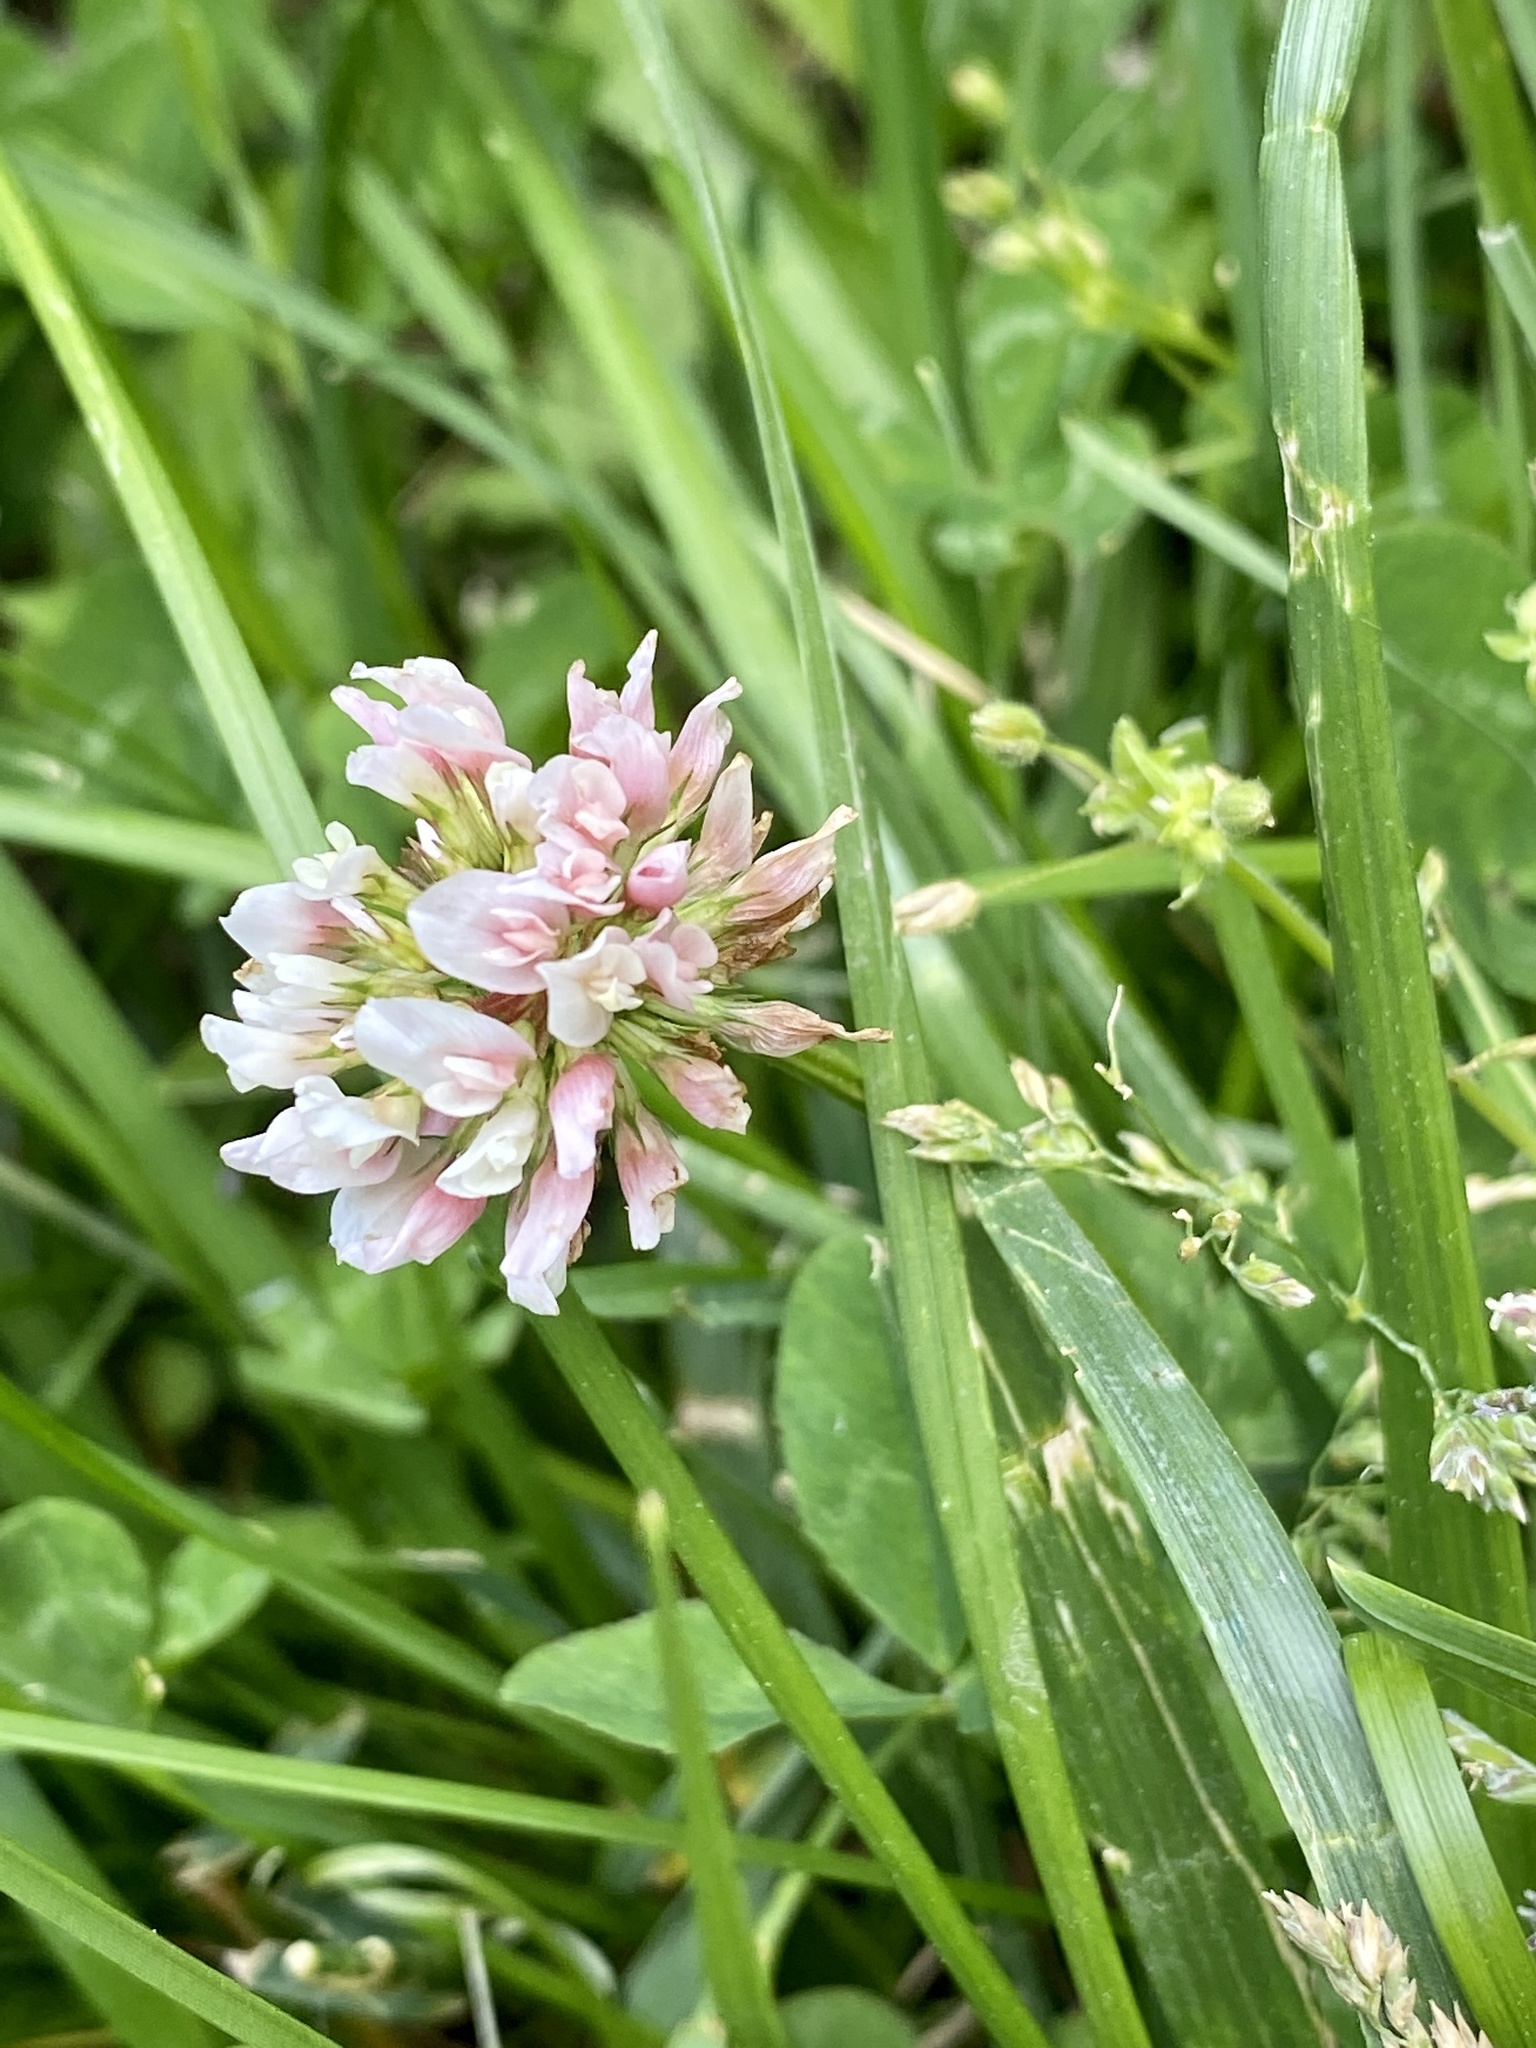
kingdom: Plantae
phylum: Tracheophyta
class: Magnoliopsida
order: Fabales
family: Fabaceae
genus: Trifolium
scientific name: Trifolium repens
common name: White clover
